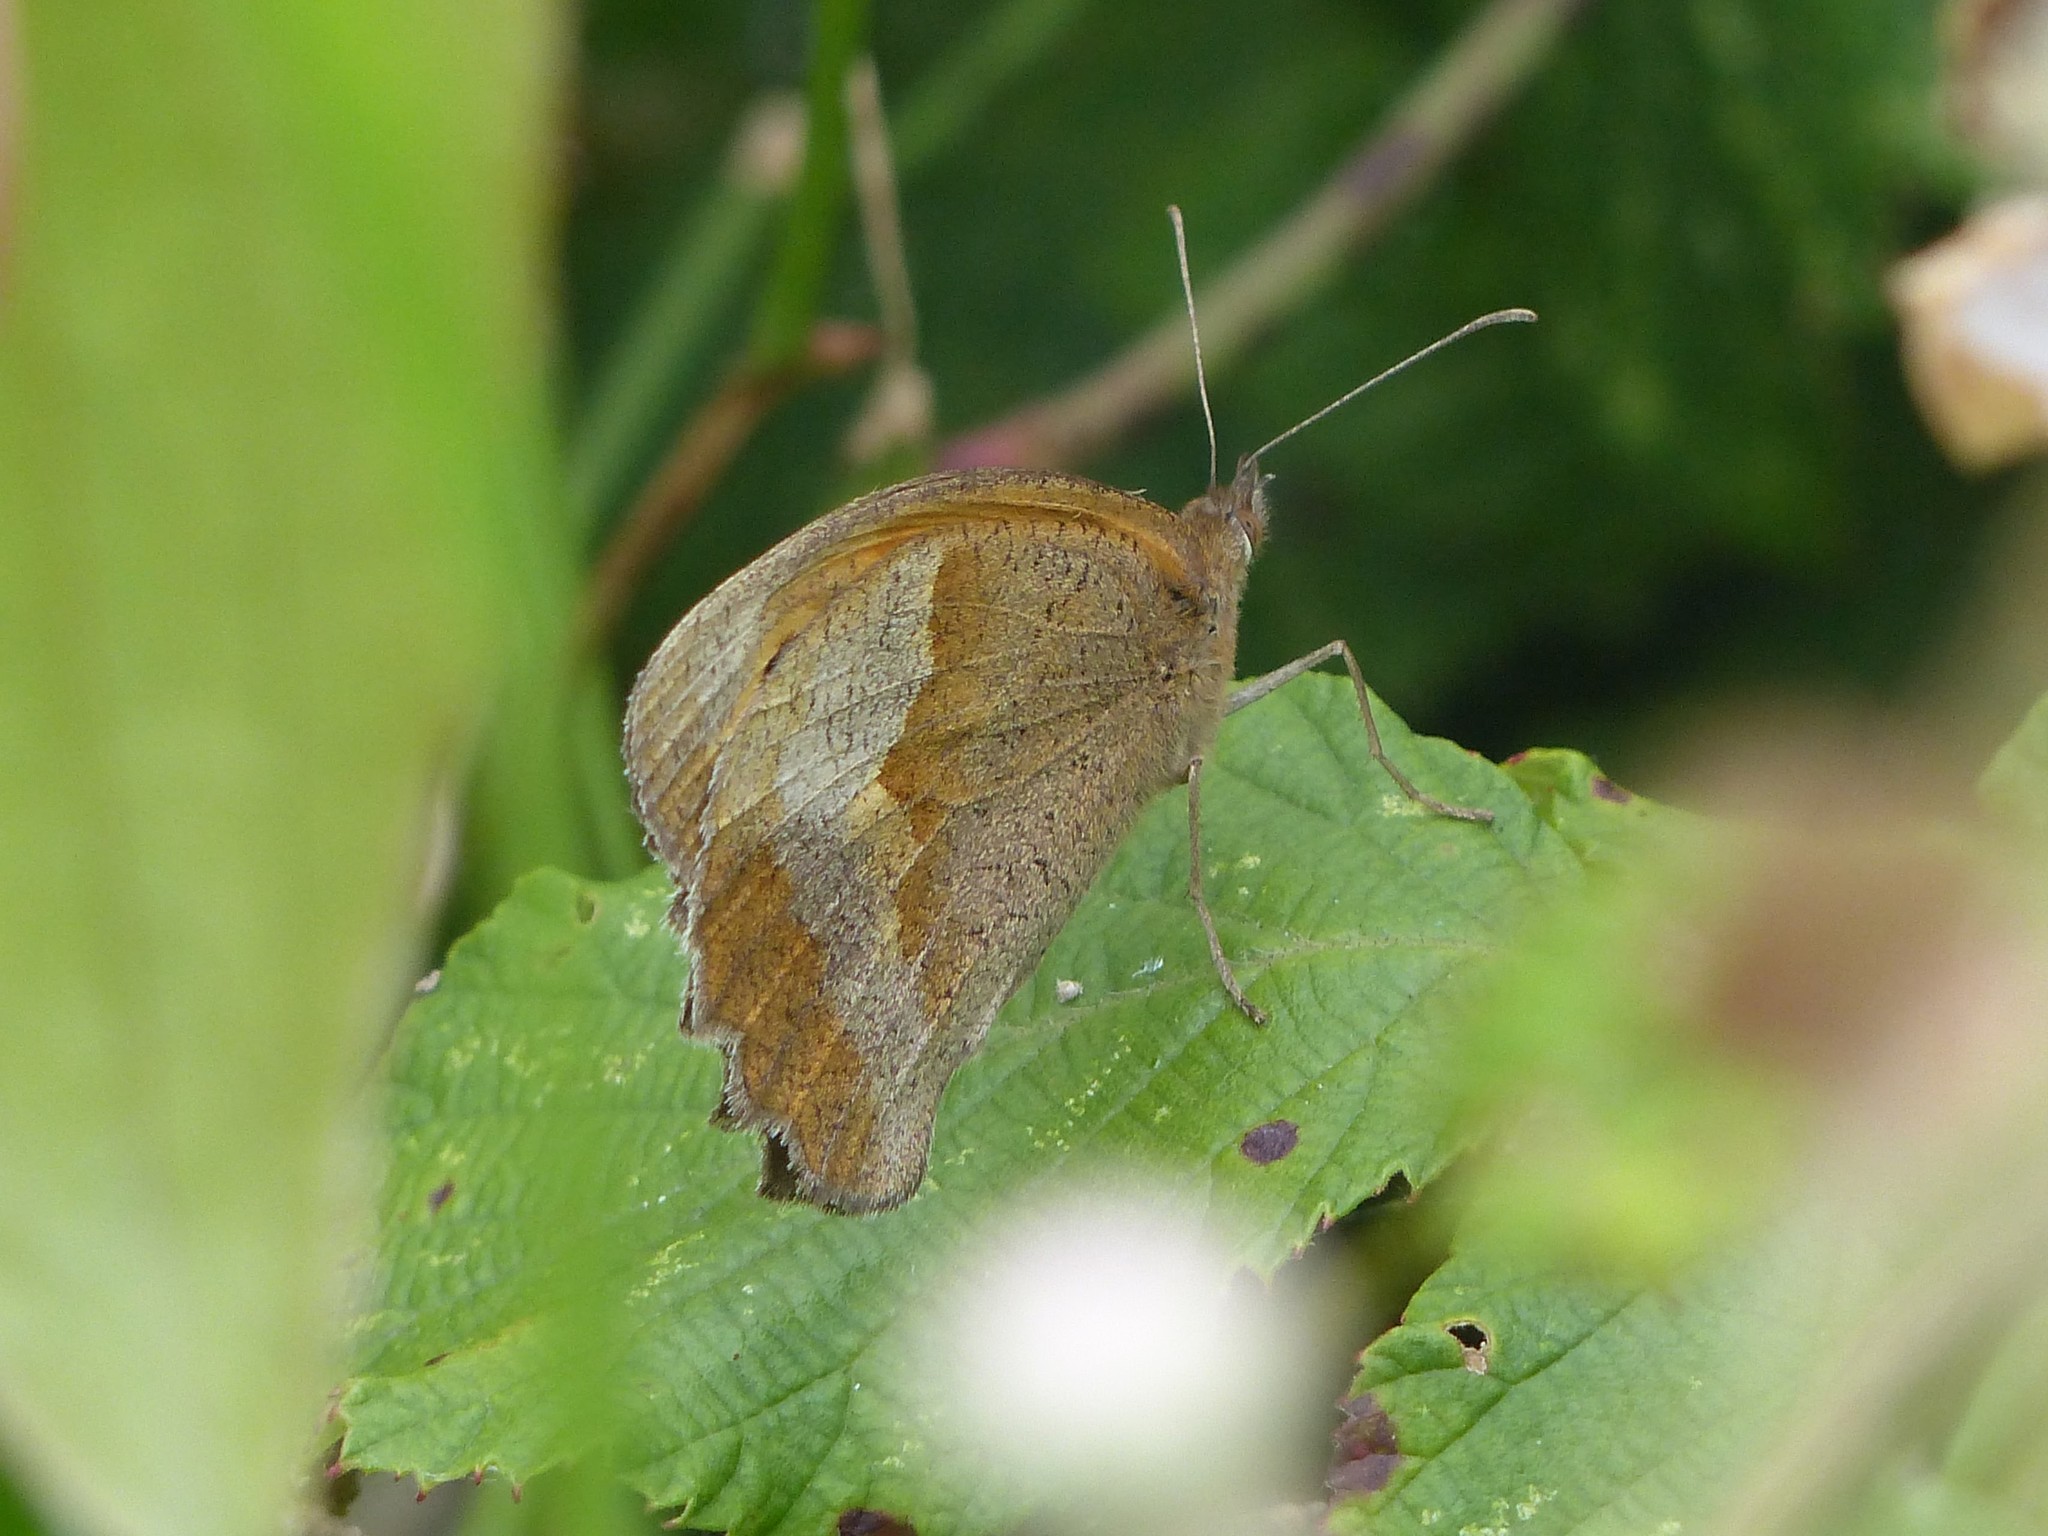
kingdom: Animalia
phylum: Arthropoda
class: Insecta
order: Lepidoptera
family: Nymphalidae
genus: Maniola
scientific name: Maniola jurtina
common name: Meadow brown
